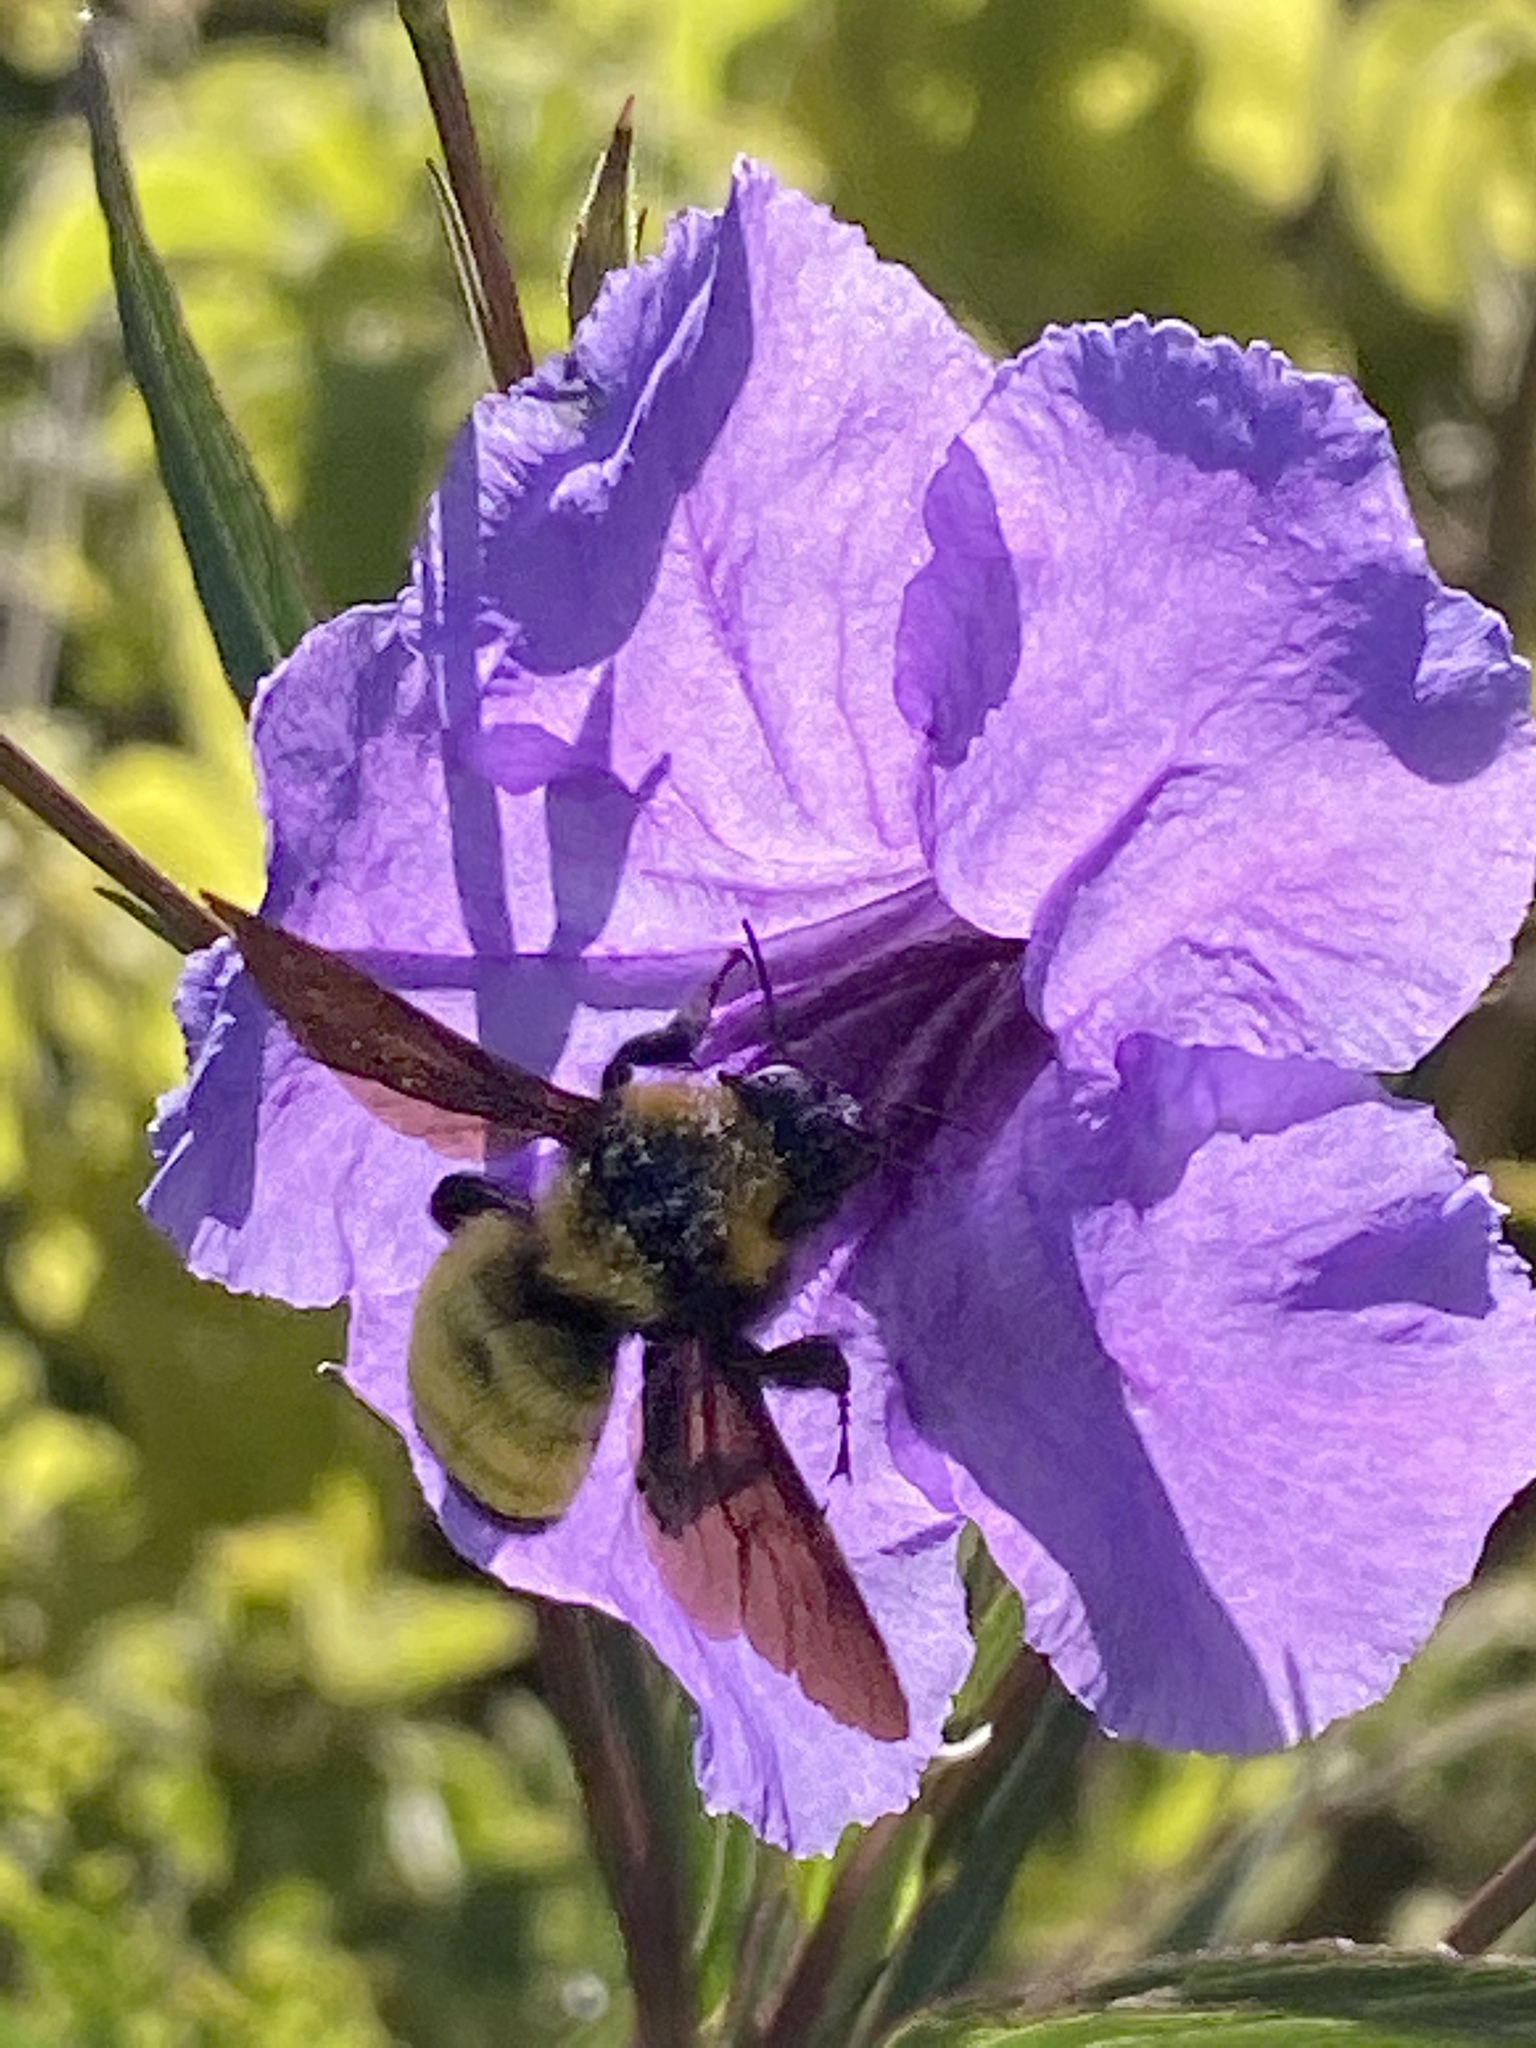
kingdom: Animalia
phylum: Arthropoda
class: Insecta
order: Hymenoptera
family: Apidae
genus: Bombus
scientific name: Bombus sonorus
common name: Sonoran bumble bee
